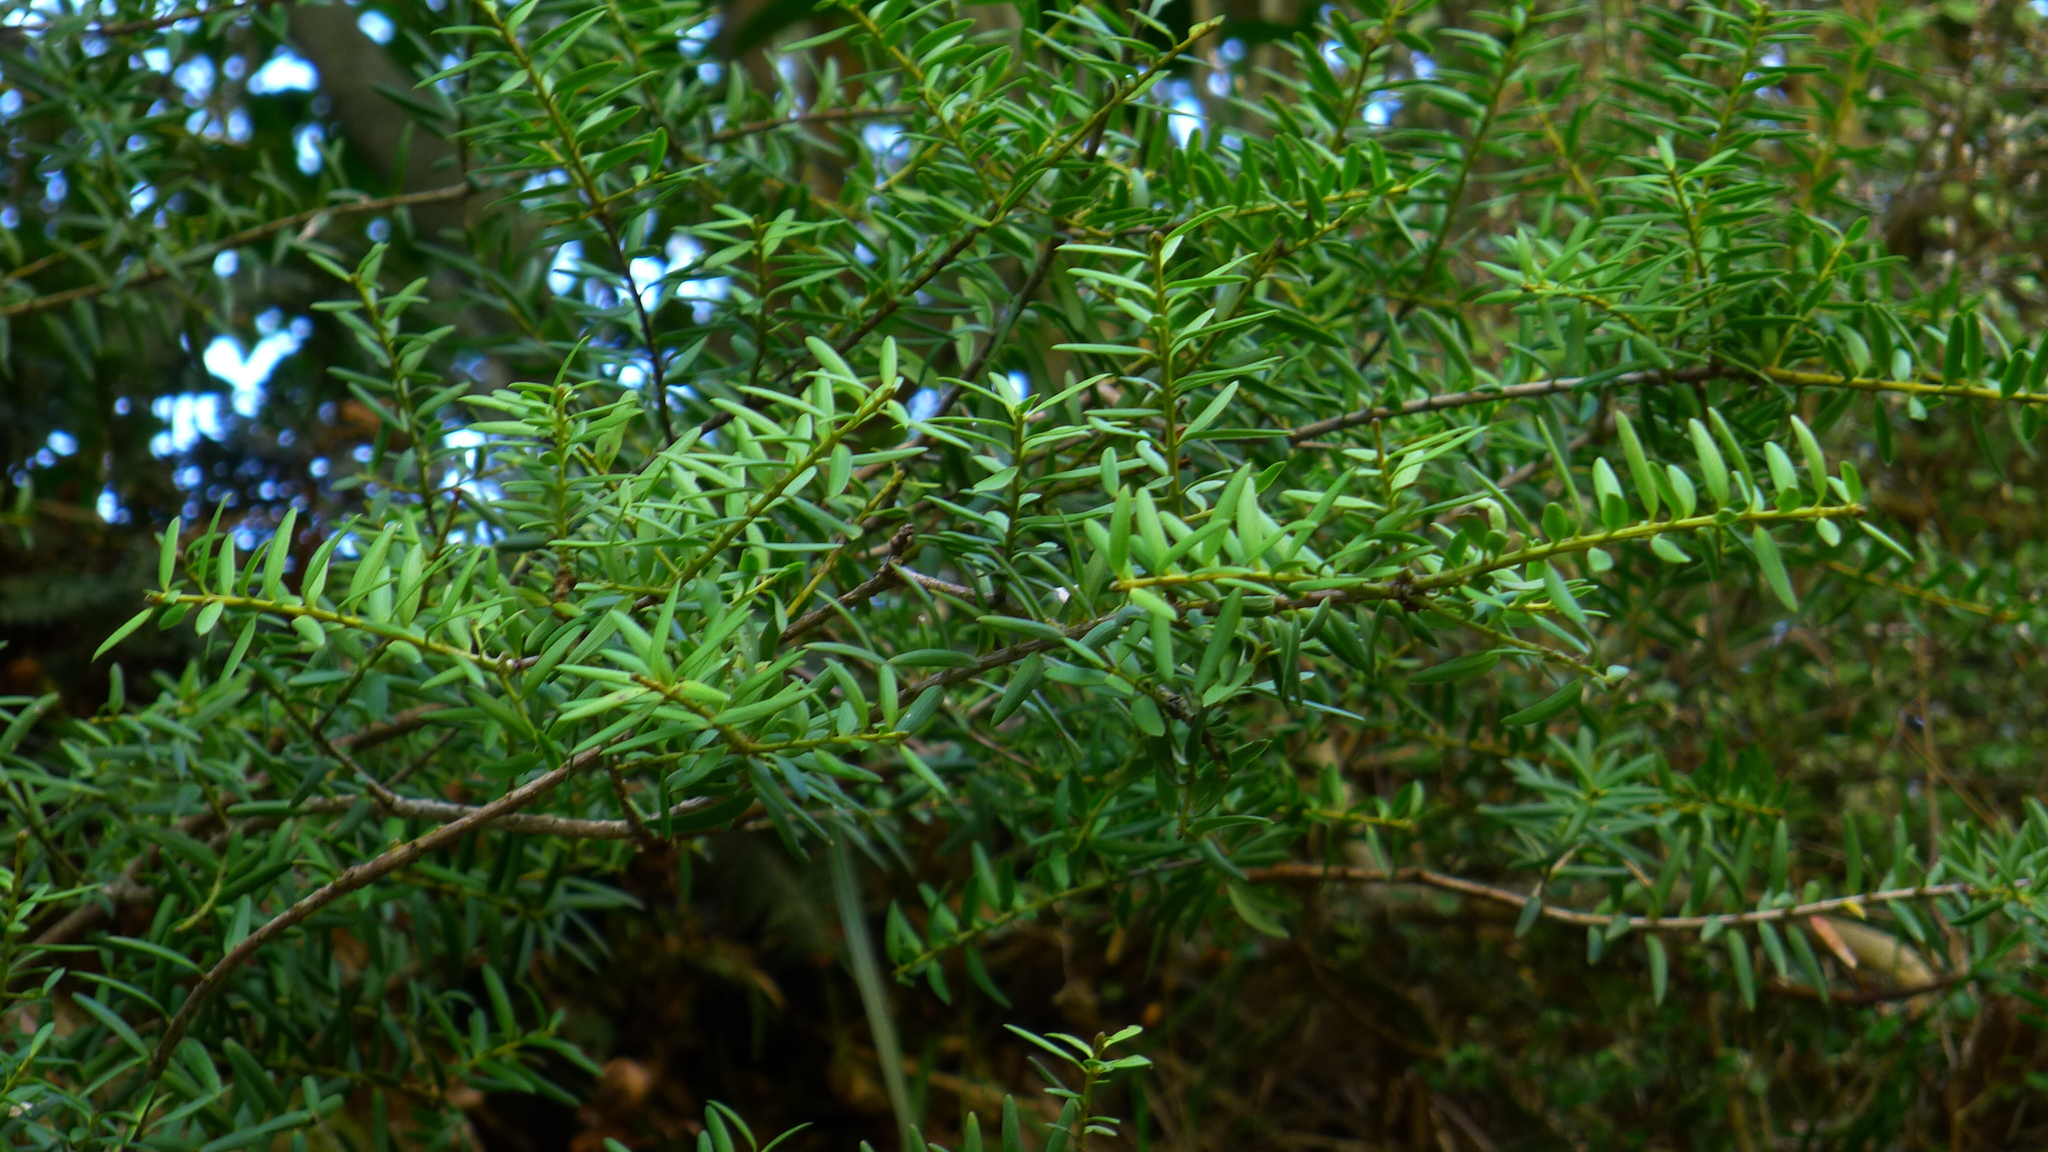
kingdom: Plantae
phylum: Tracheophyta
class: Pinopsida
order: Pinales
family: Podocarpaceae
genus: Podocarpus
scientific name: Podocarpus laetus
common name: Hall's totara
